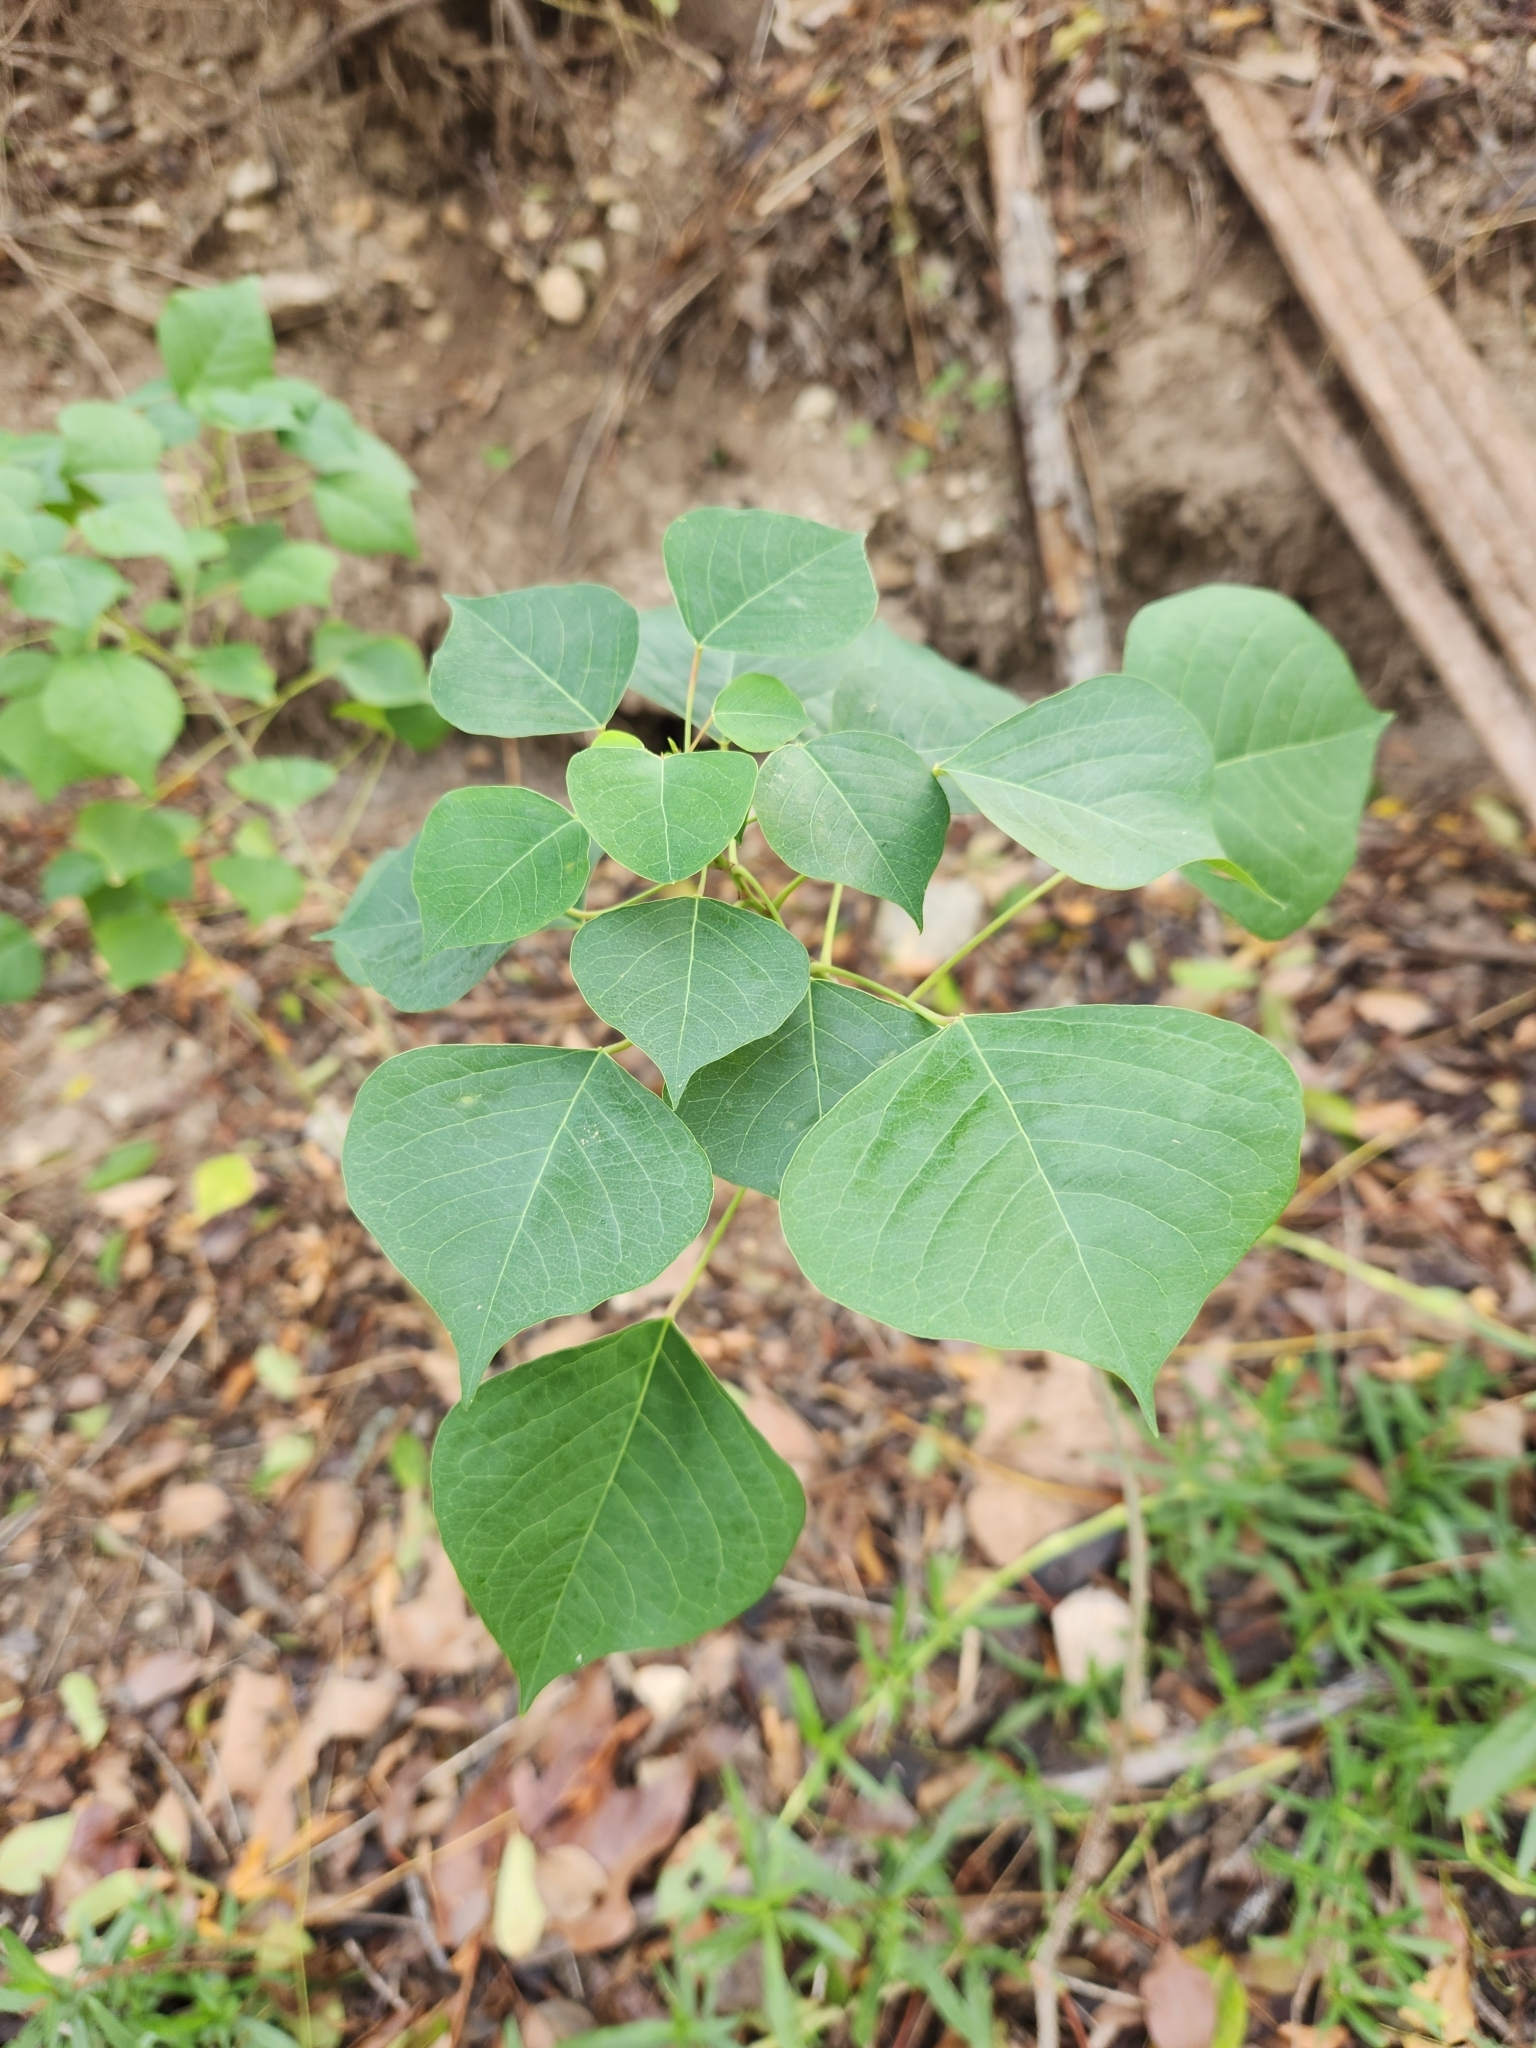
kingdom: Plantae
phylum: Tracheophyta
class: Magnoliopsida
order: Malpighiales
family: Euphorbiaceae
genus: Triadica
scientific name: Triadica sebifera
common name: Chinese tallow
